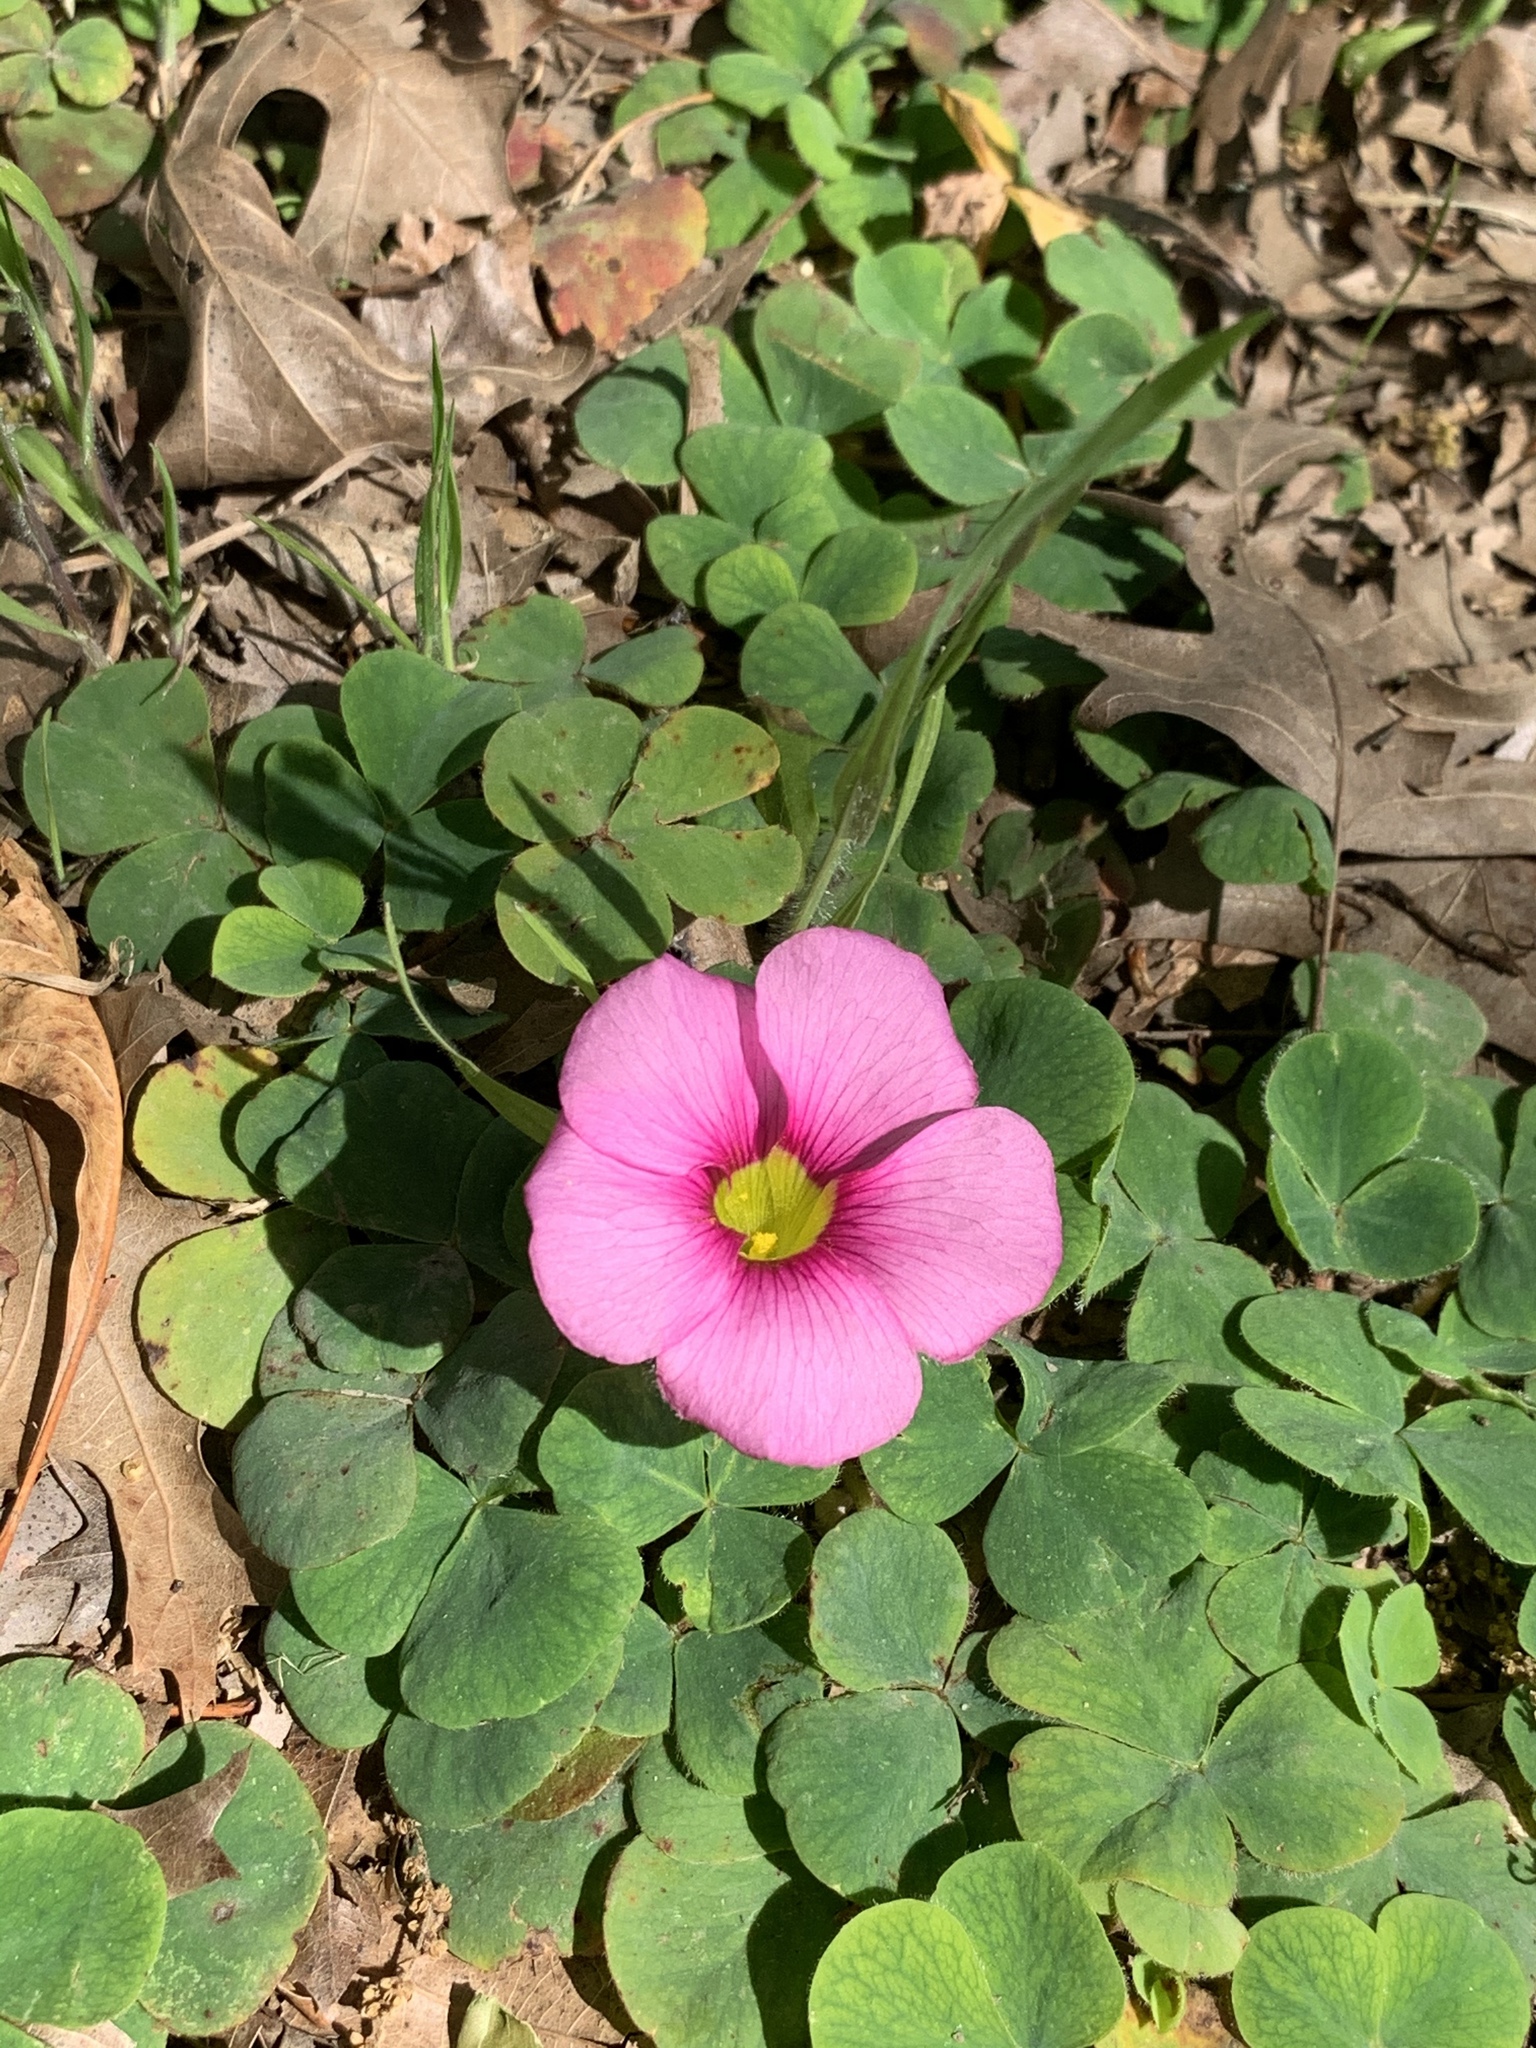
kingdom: Plantae
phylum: Tracheophyta
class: Magnoliopsida
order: Oxalidales
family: Oxalidaceae
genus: Oxalis
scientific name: Oxalis purpurea
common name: Purple woodsorrel
